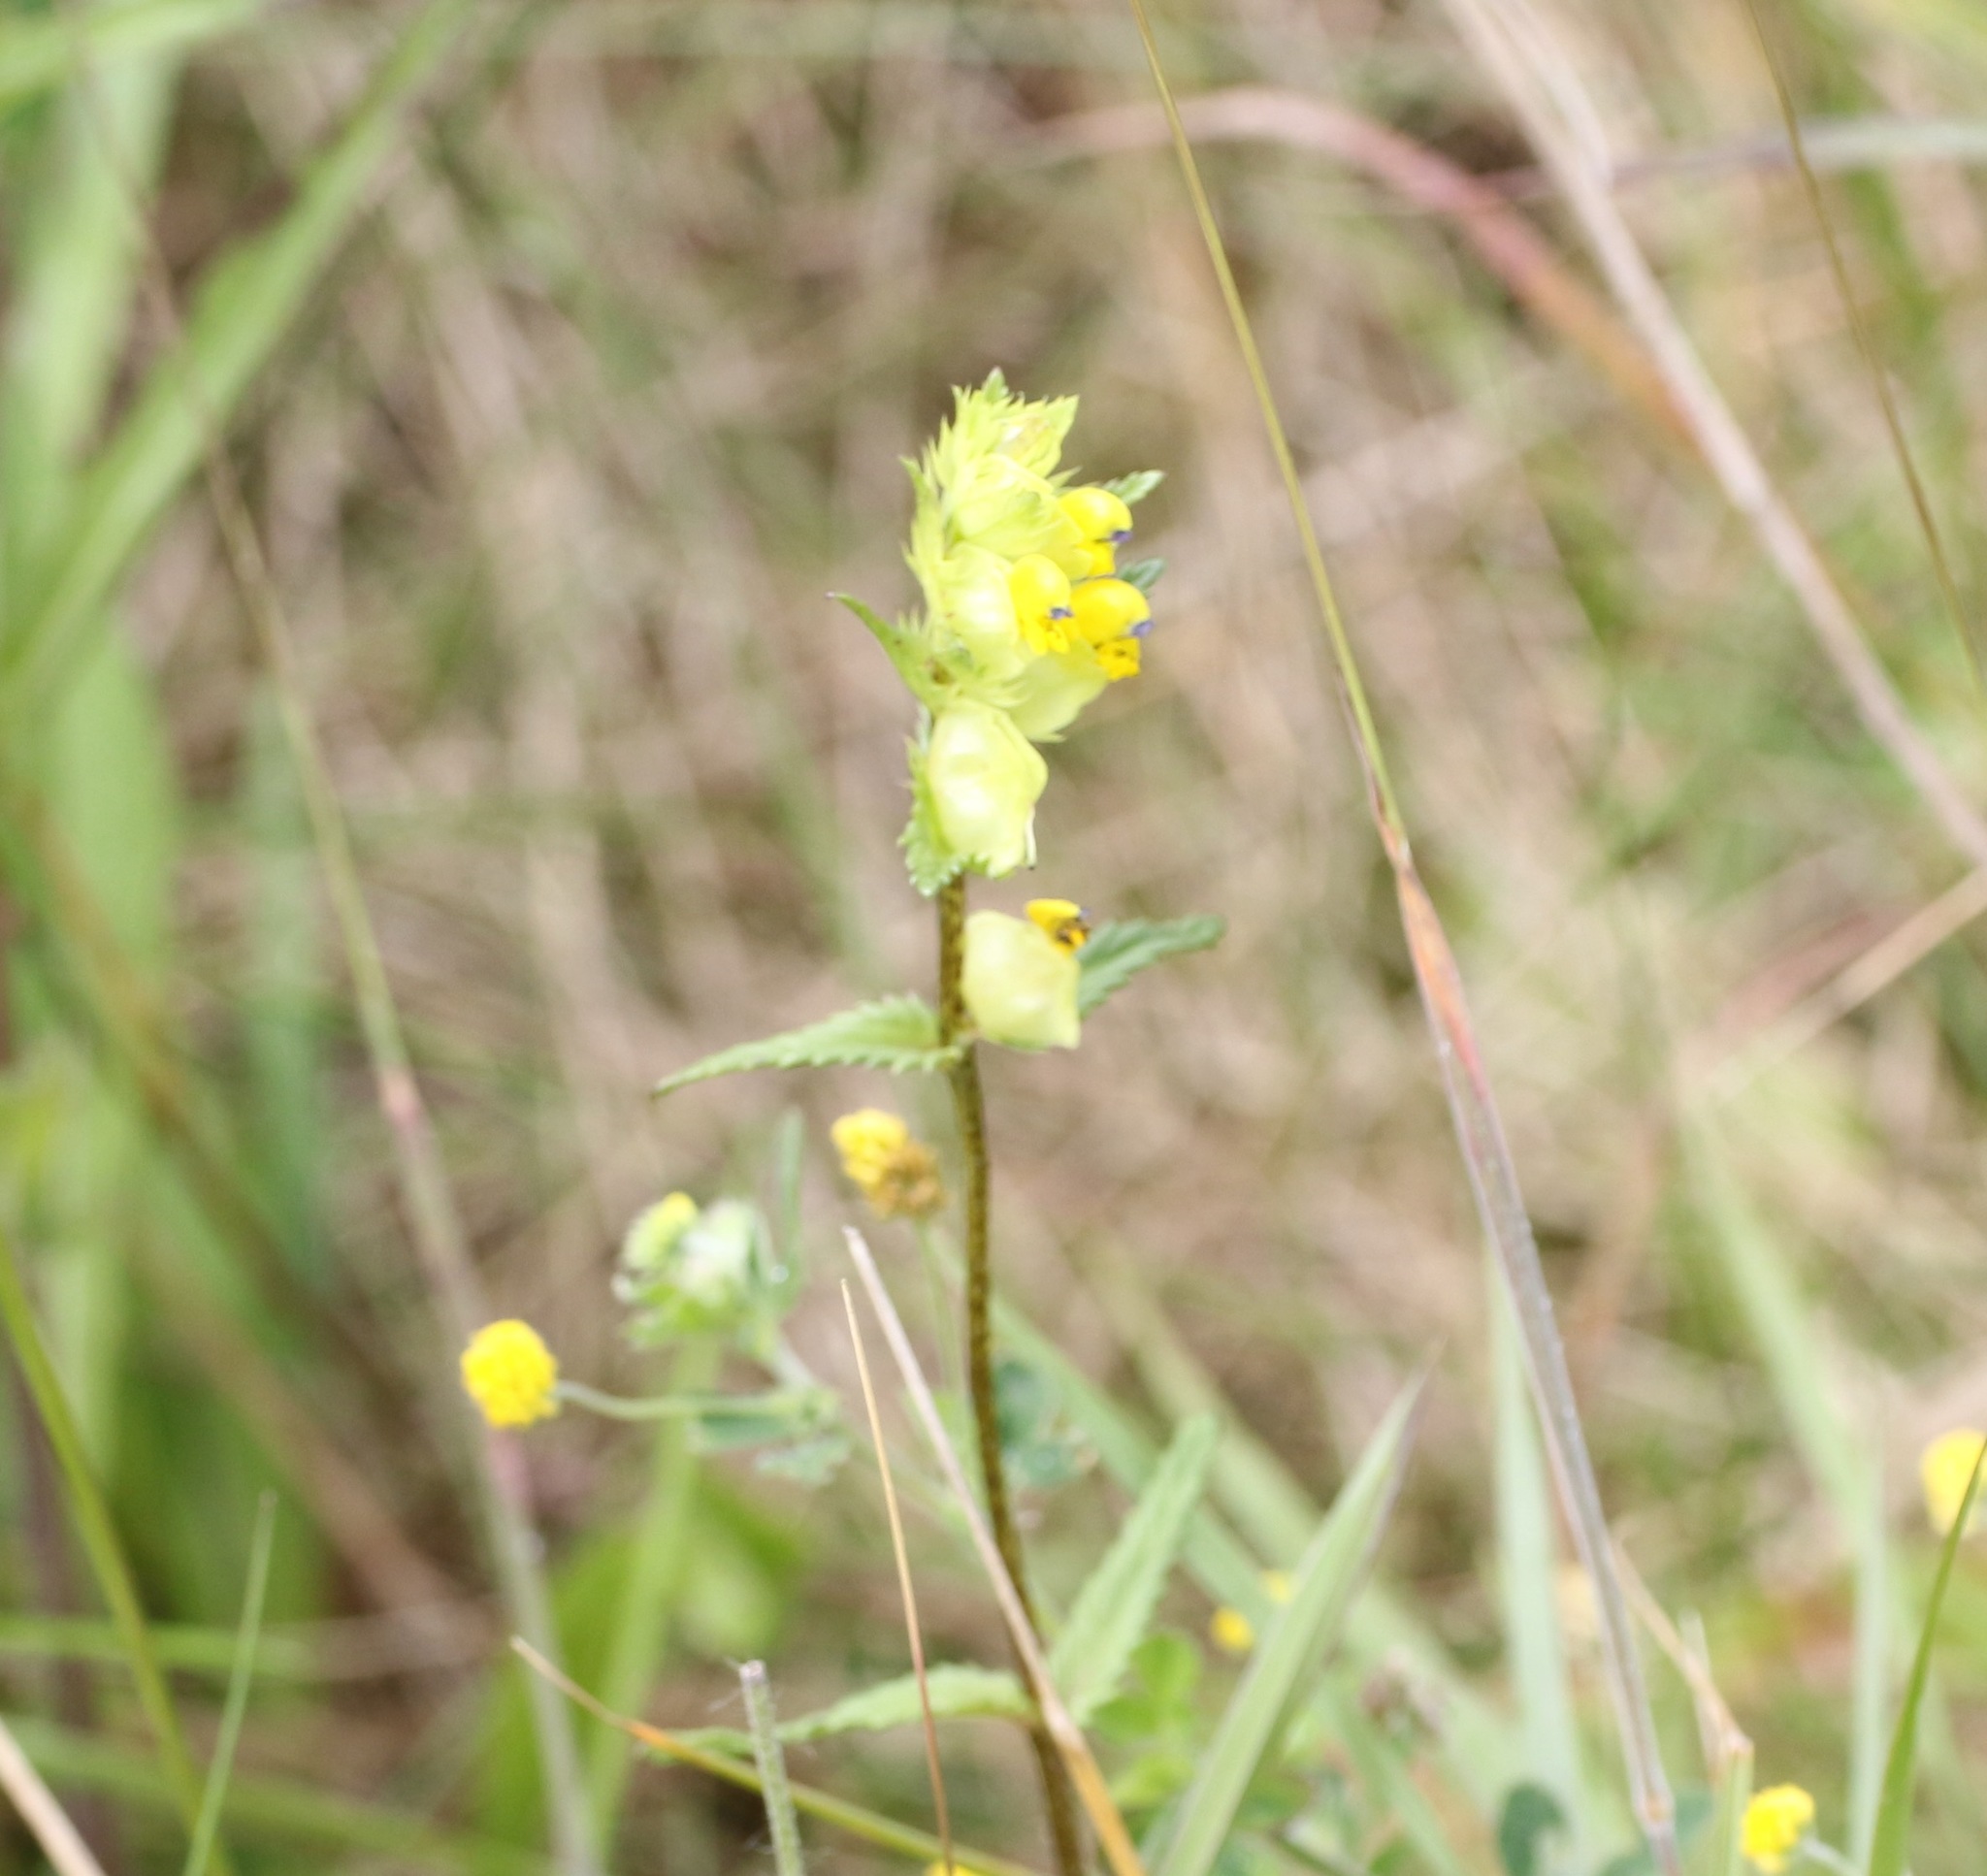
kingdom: Plantae
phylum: Tracheophyta
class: Magnoliopsida
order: Lamiales
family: Orobanchaceae
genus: Rhinanthus
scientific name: Rhinanthus minor
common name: Yellow-rattle
